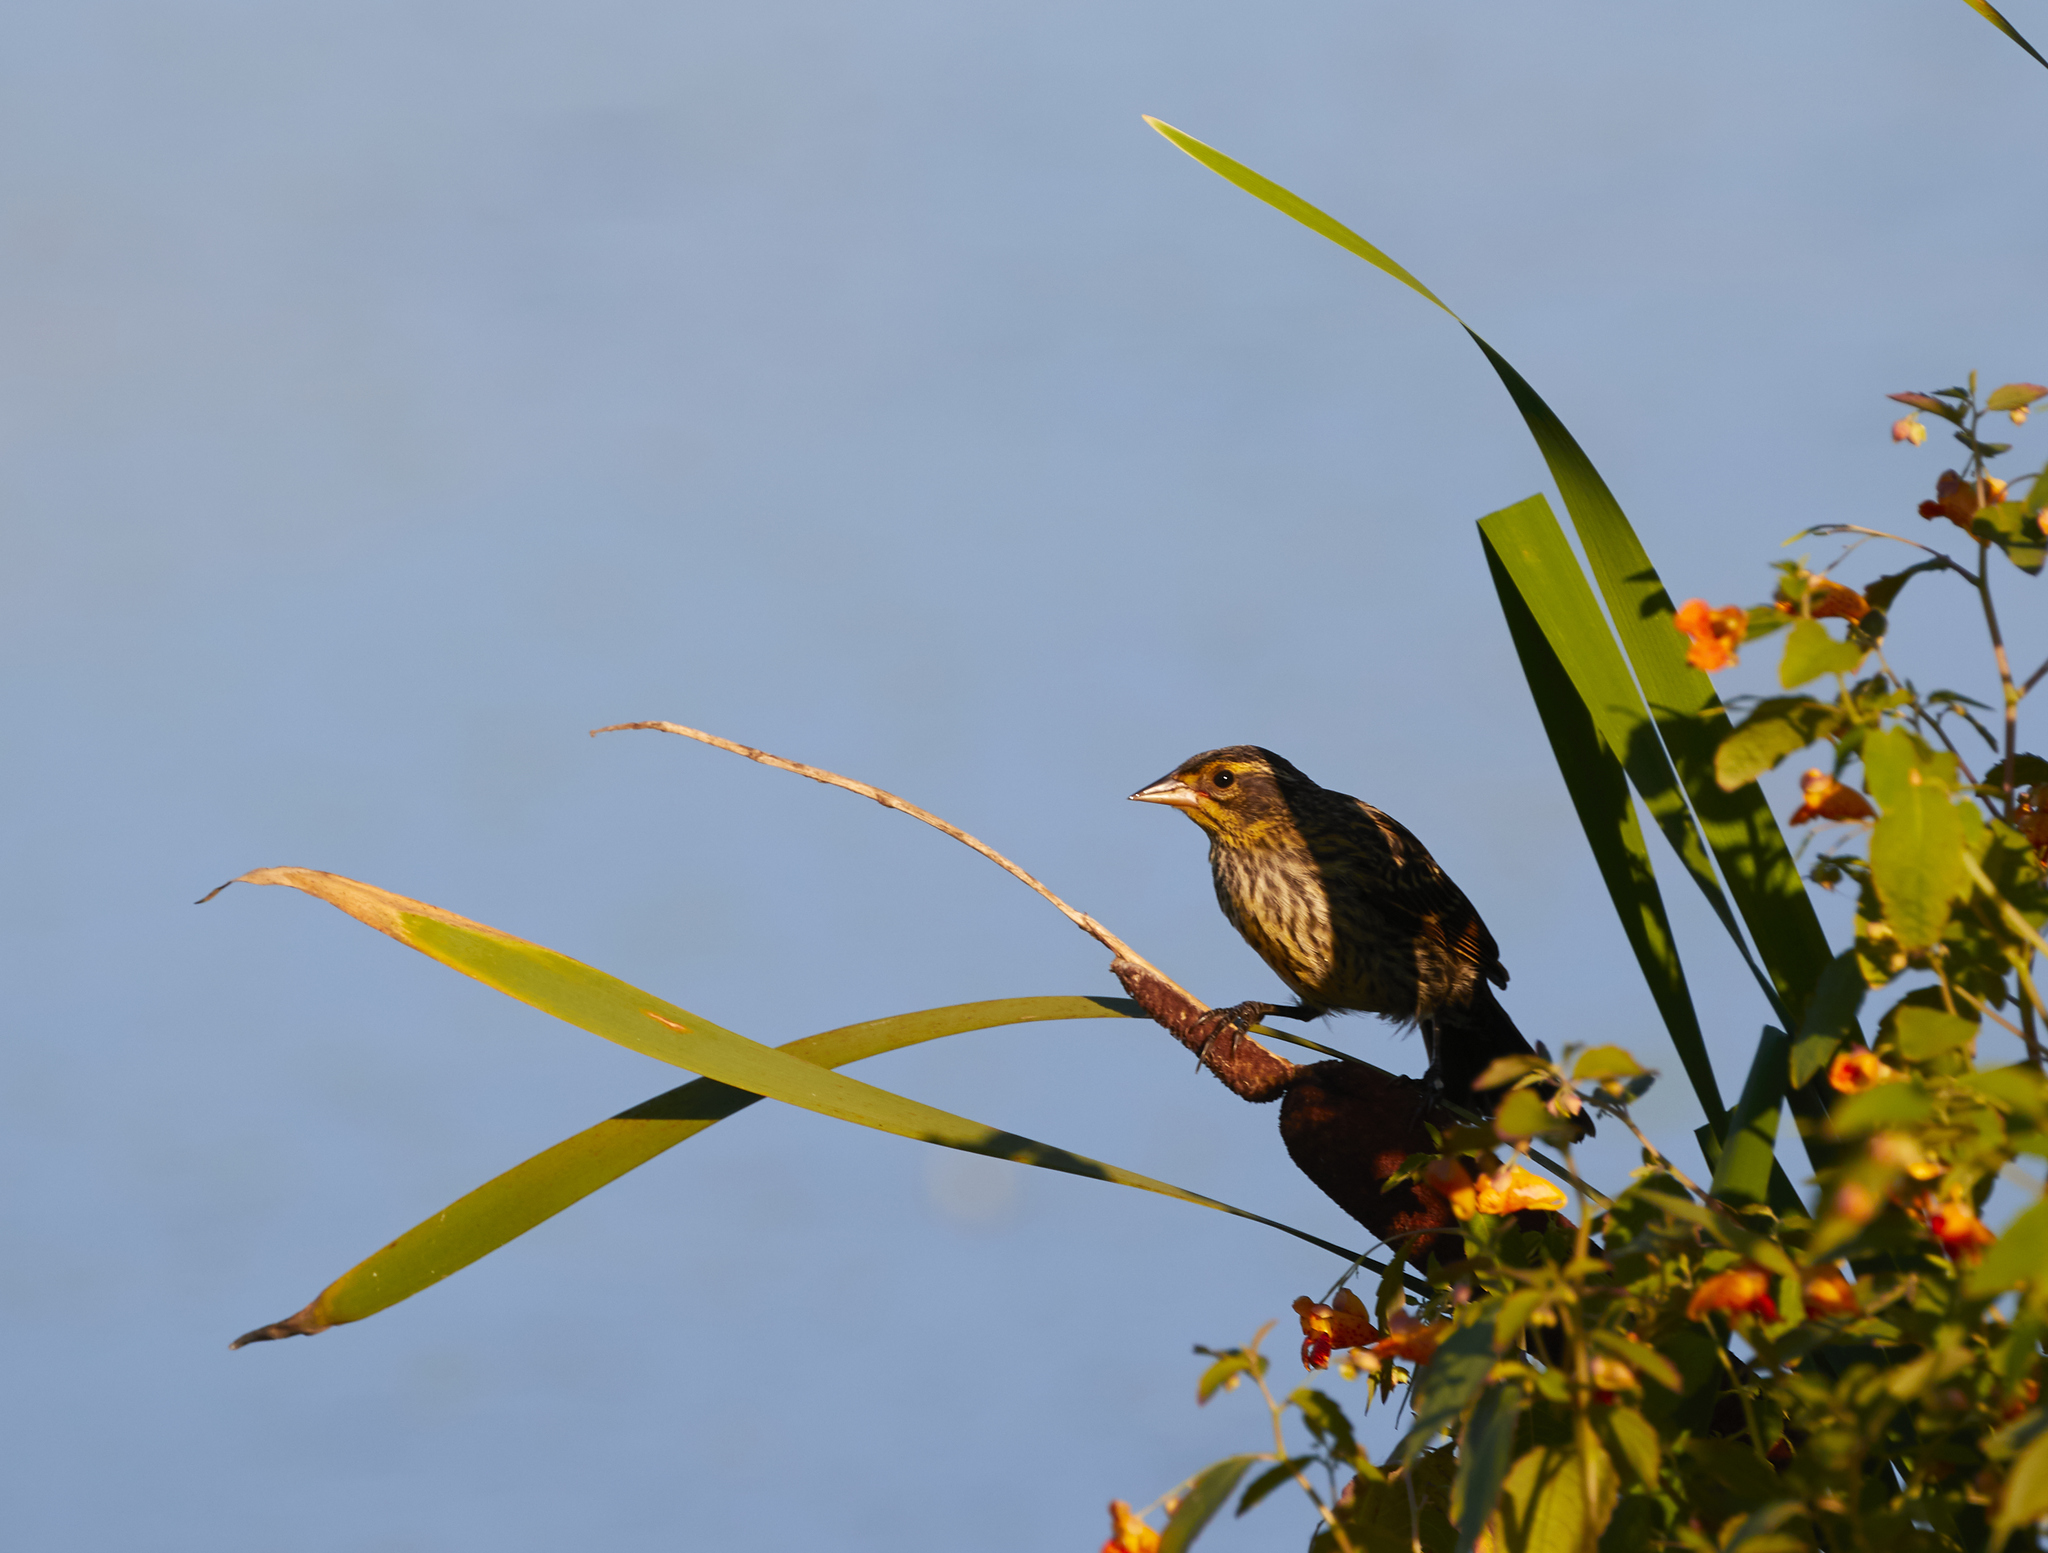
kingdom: Animalia
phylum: Chordata
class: Aves
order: Passeriformes
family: Icteridae
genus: Agelaius
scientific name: Agelaius phoeniceus
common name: Red-winged blackbird
